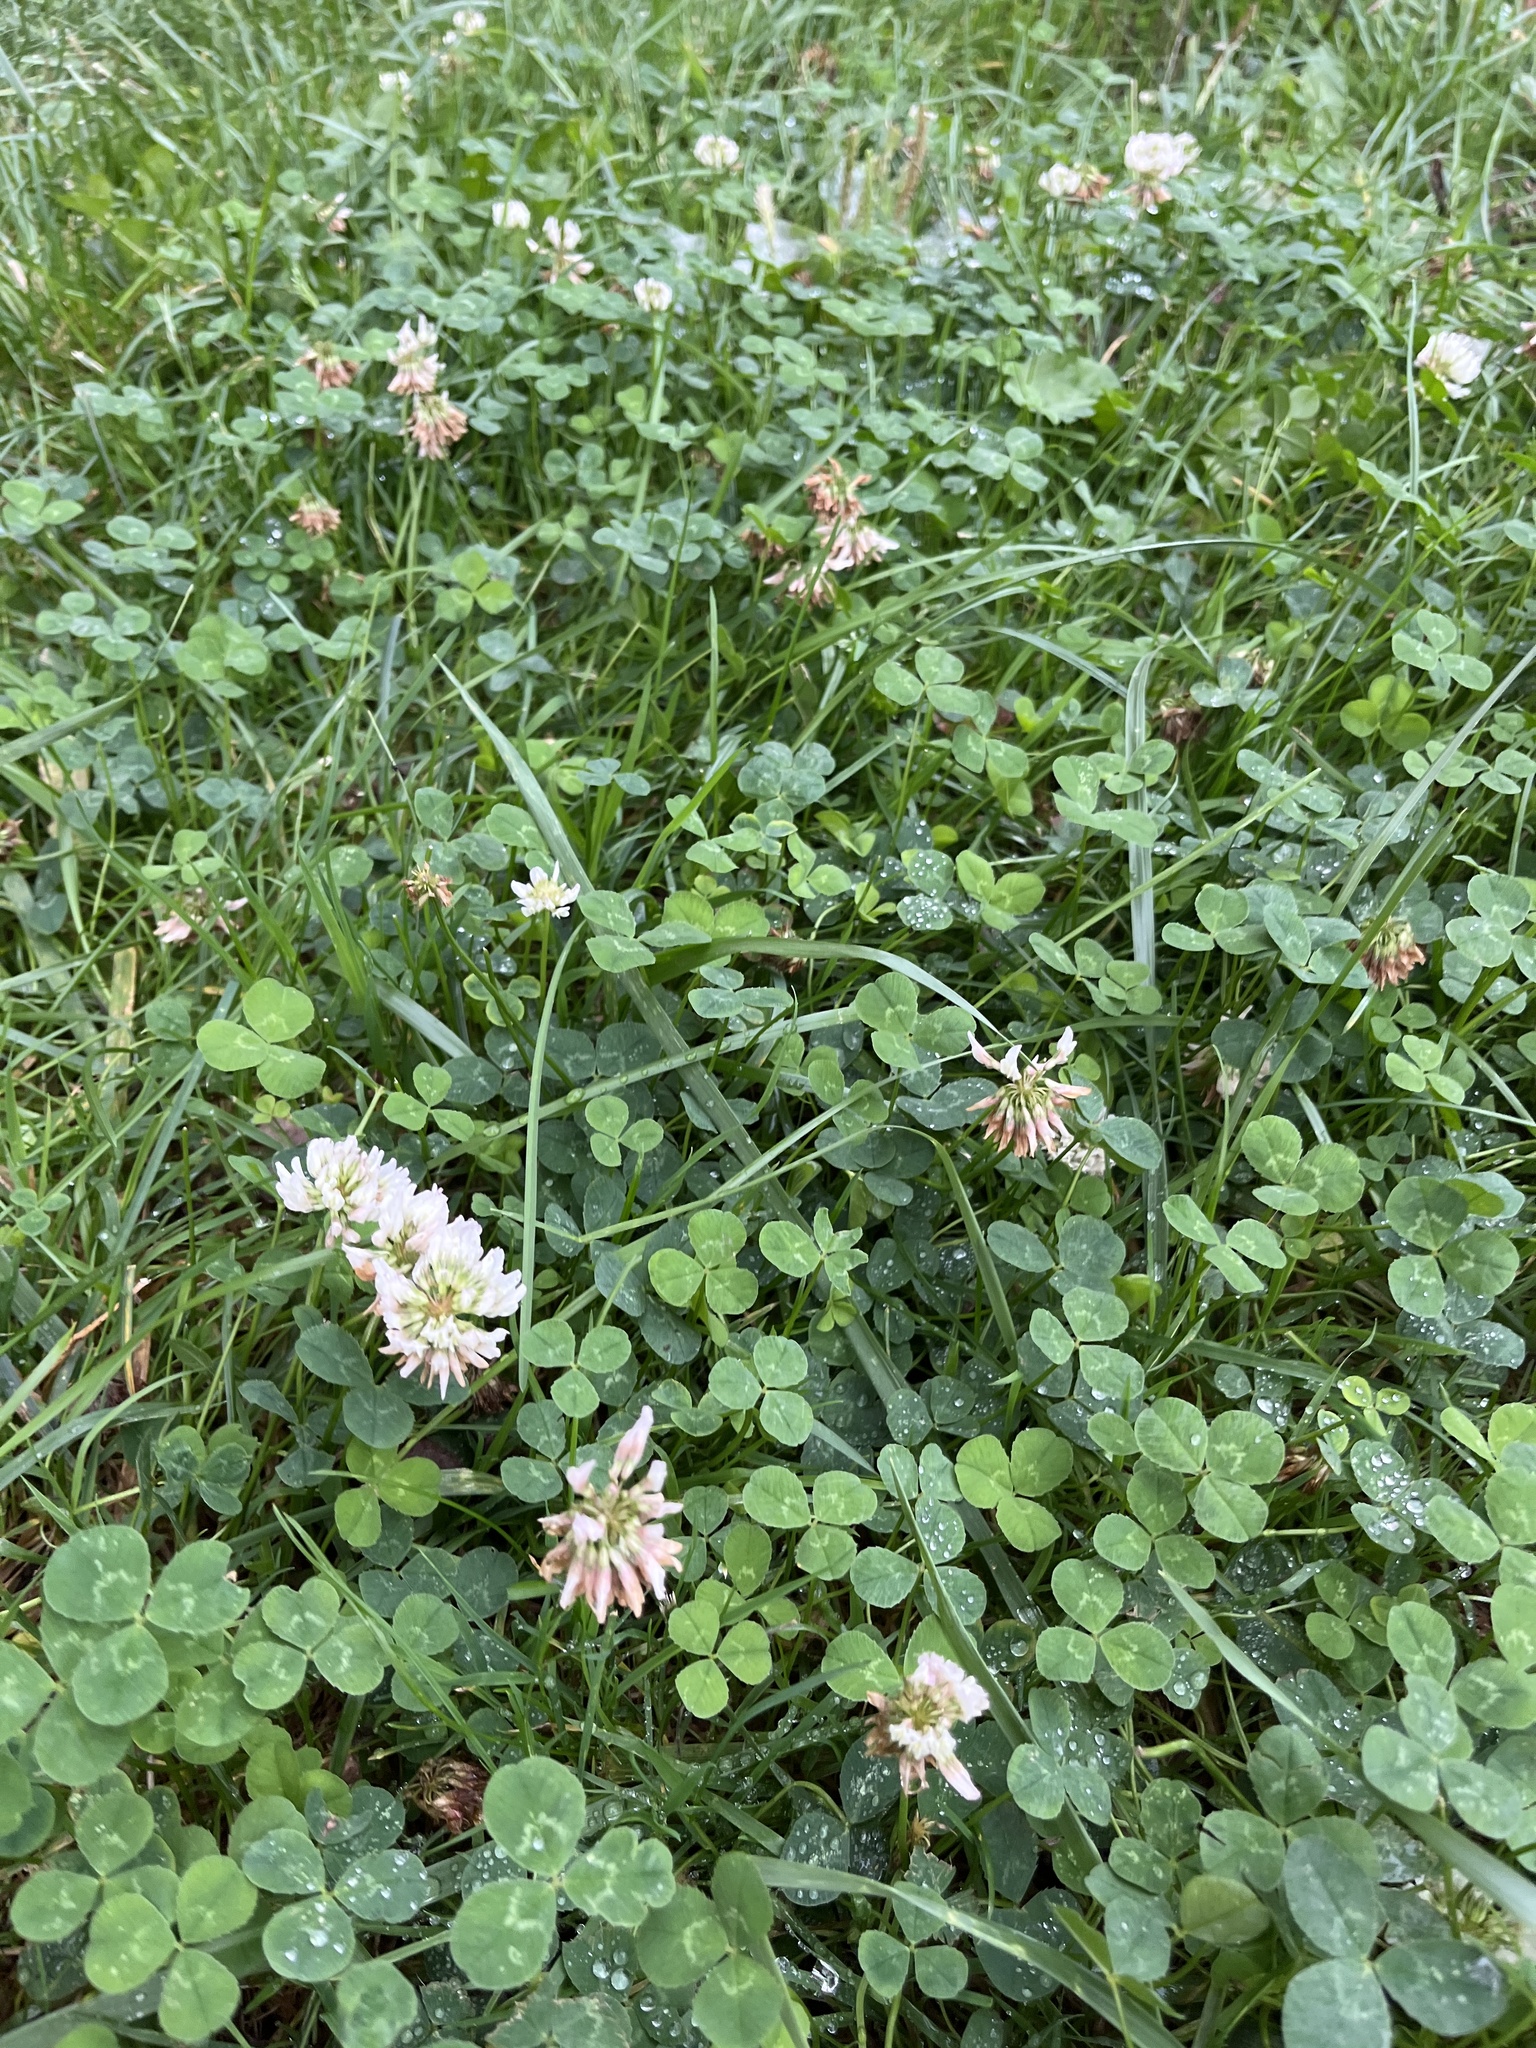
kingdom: Plantae
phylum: Tracheophyta
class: Magnoliopsida
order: Fabales
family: Fabaceae
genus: Trifolium
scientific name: Trifolium repens
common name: White clover
